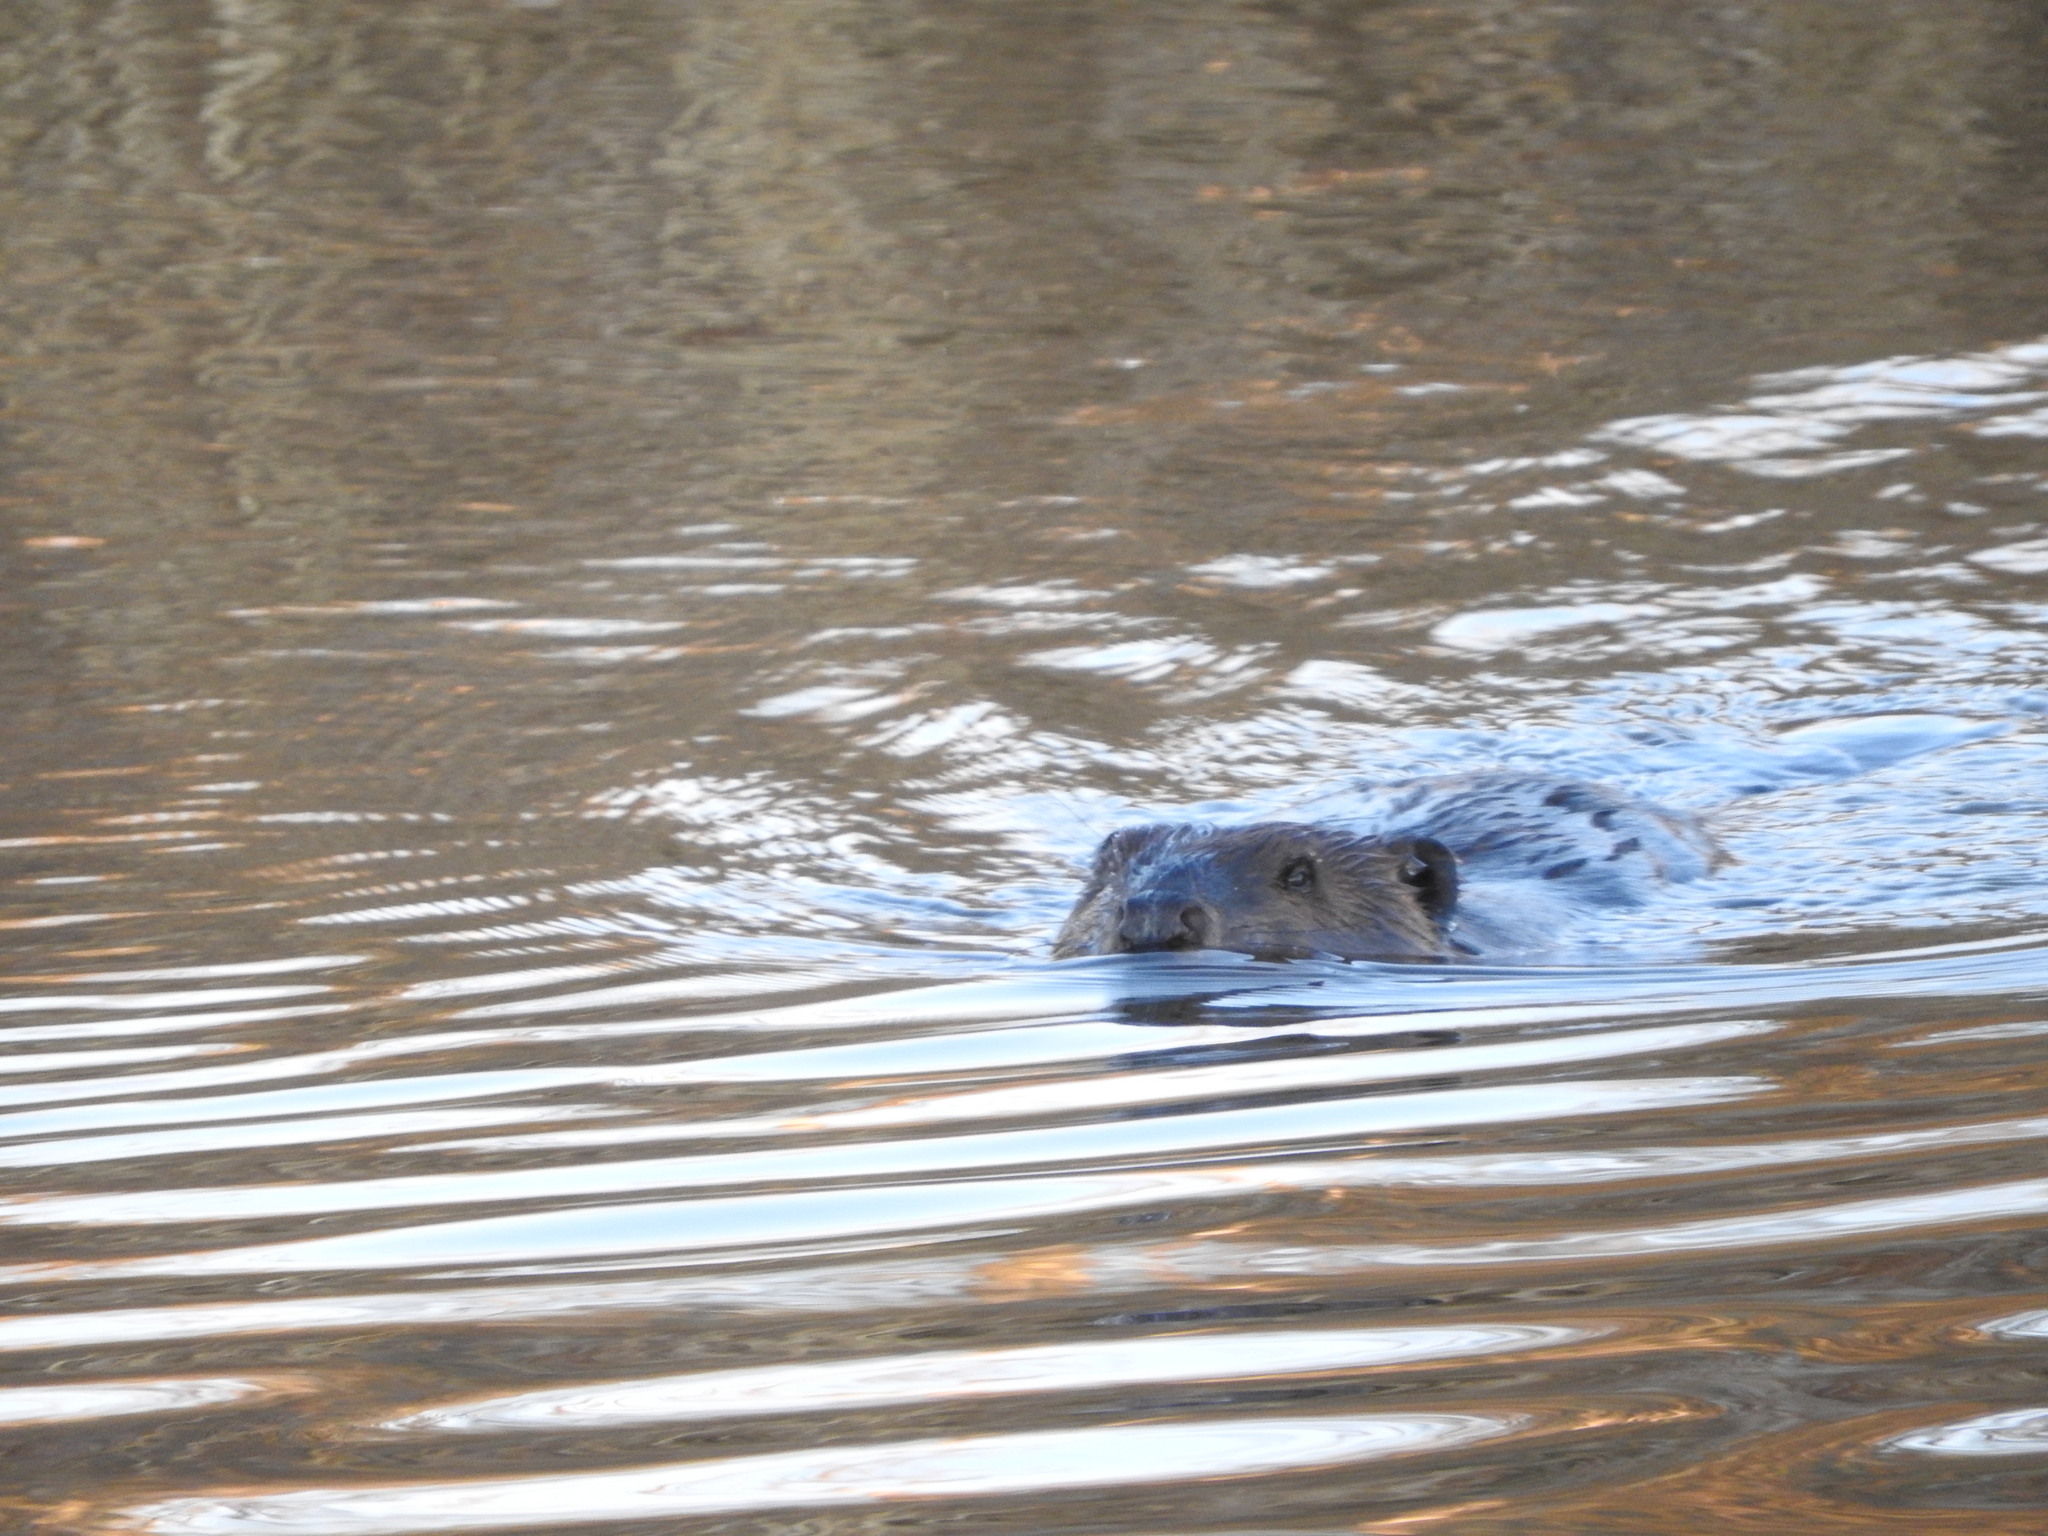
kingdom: Animalia
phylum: Chordata
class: Mammalia
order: Rodentia
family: Castoridae
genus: Castor
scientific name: Castor canadensis
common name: American beaver
